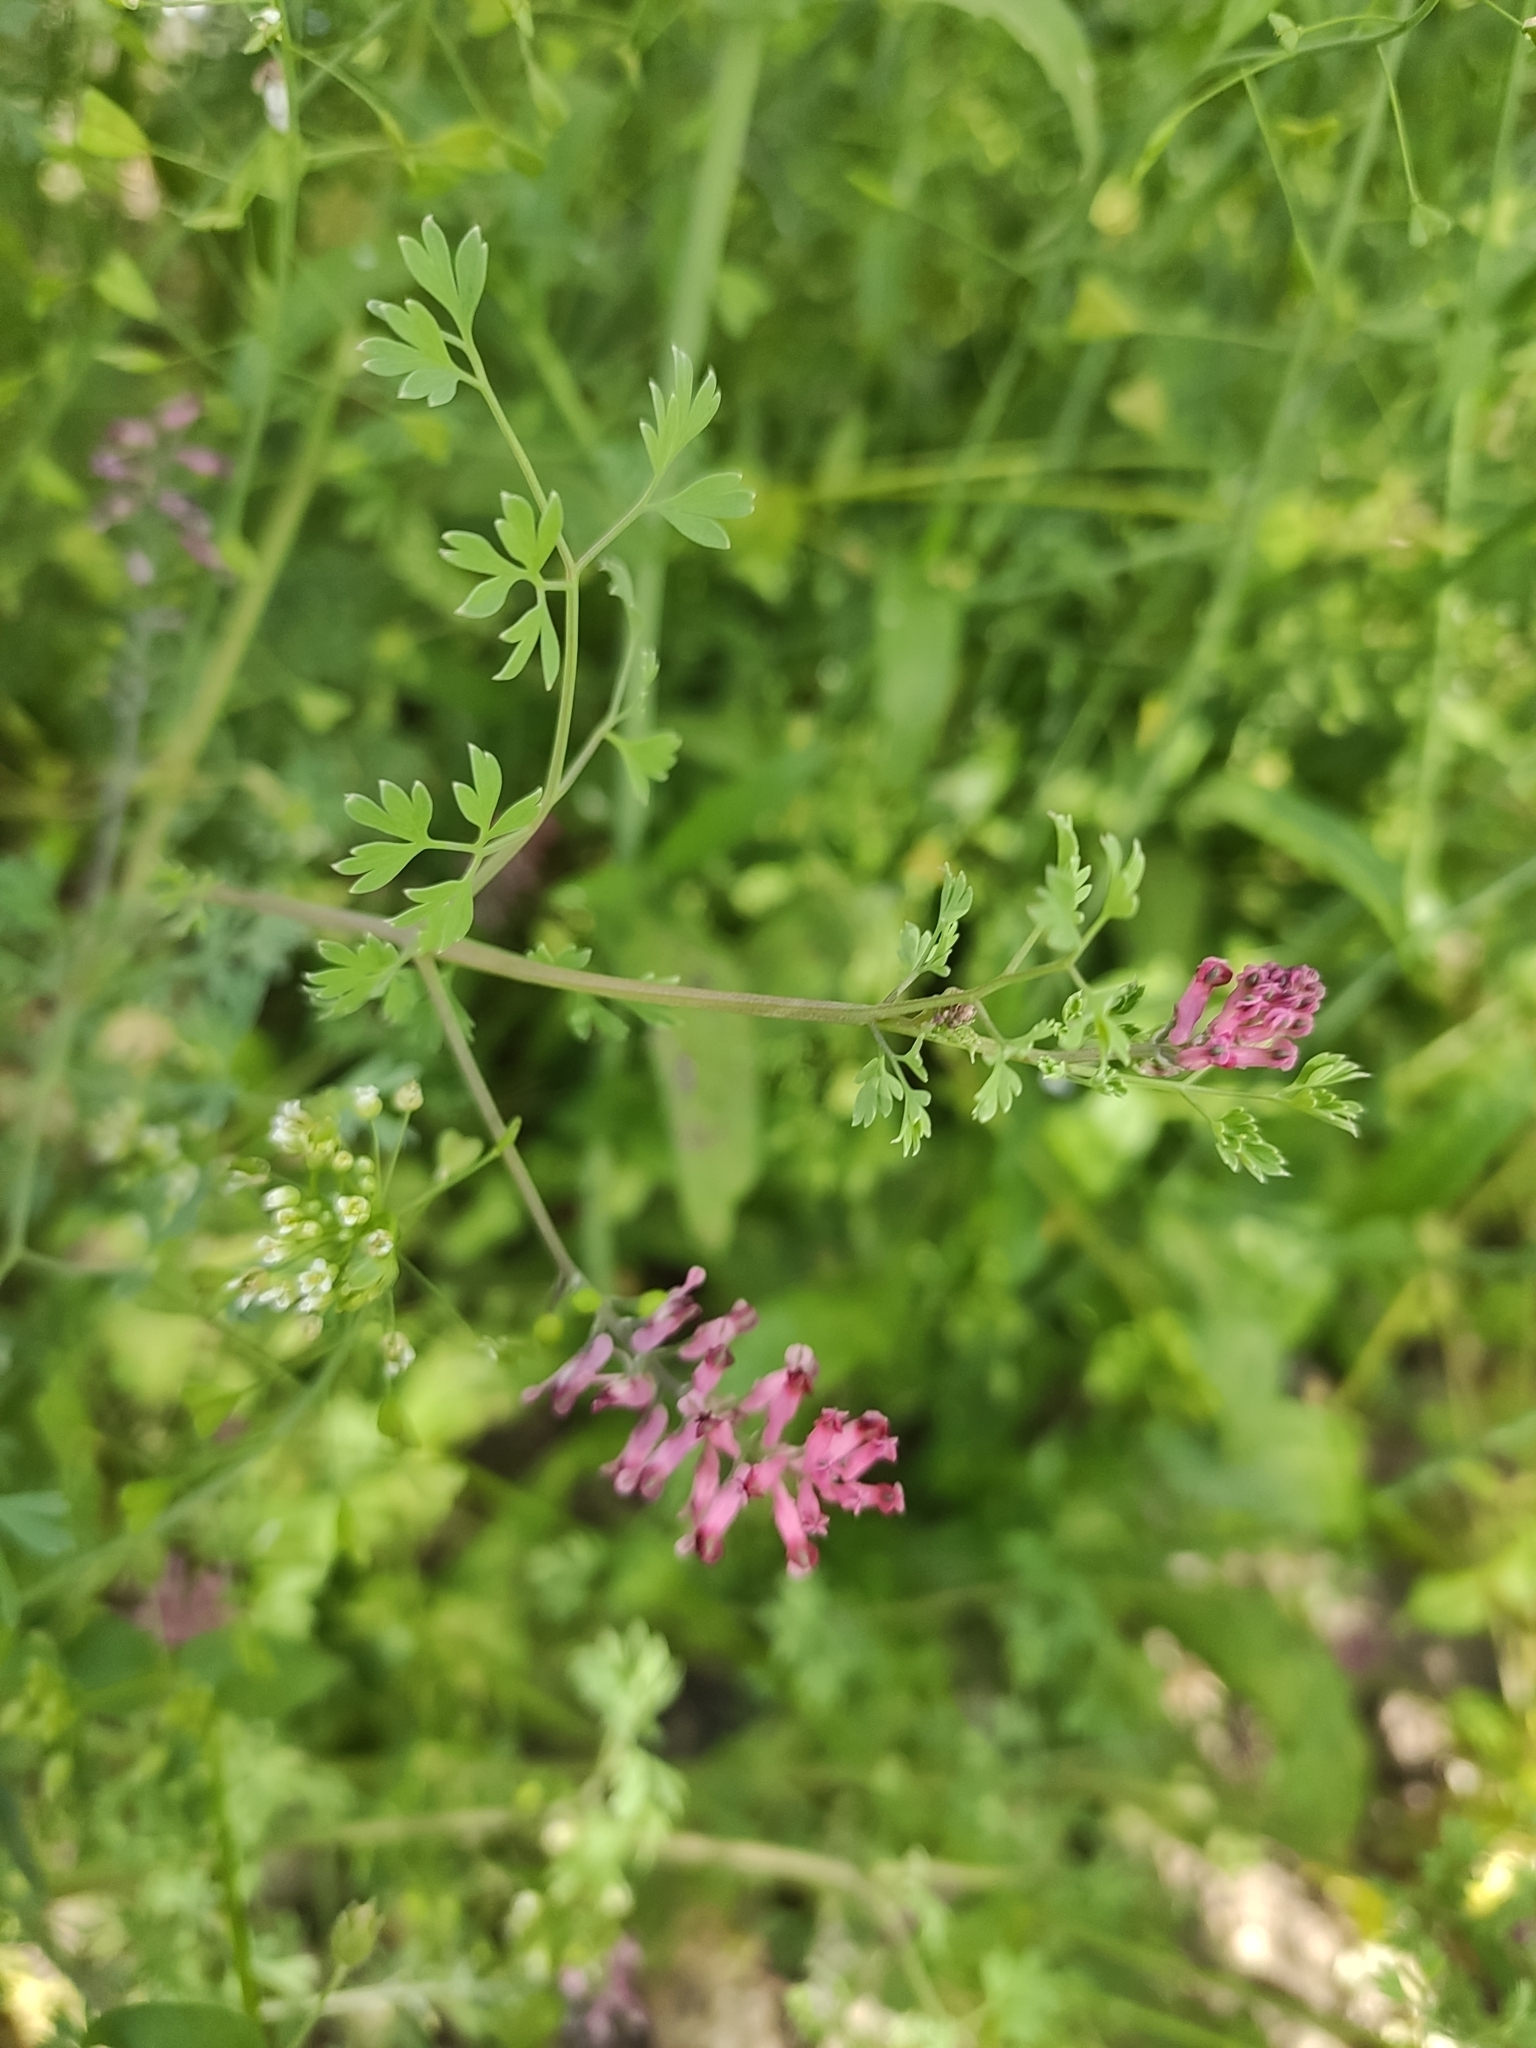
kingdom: Plantae
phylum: Tracheophyta
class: Magnoliopsida
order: Ranunculales
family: Papaveraceae
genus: Fumaria
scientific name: Fumaria schleicheri
